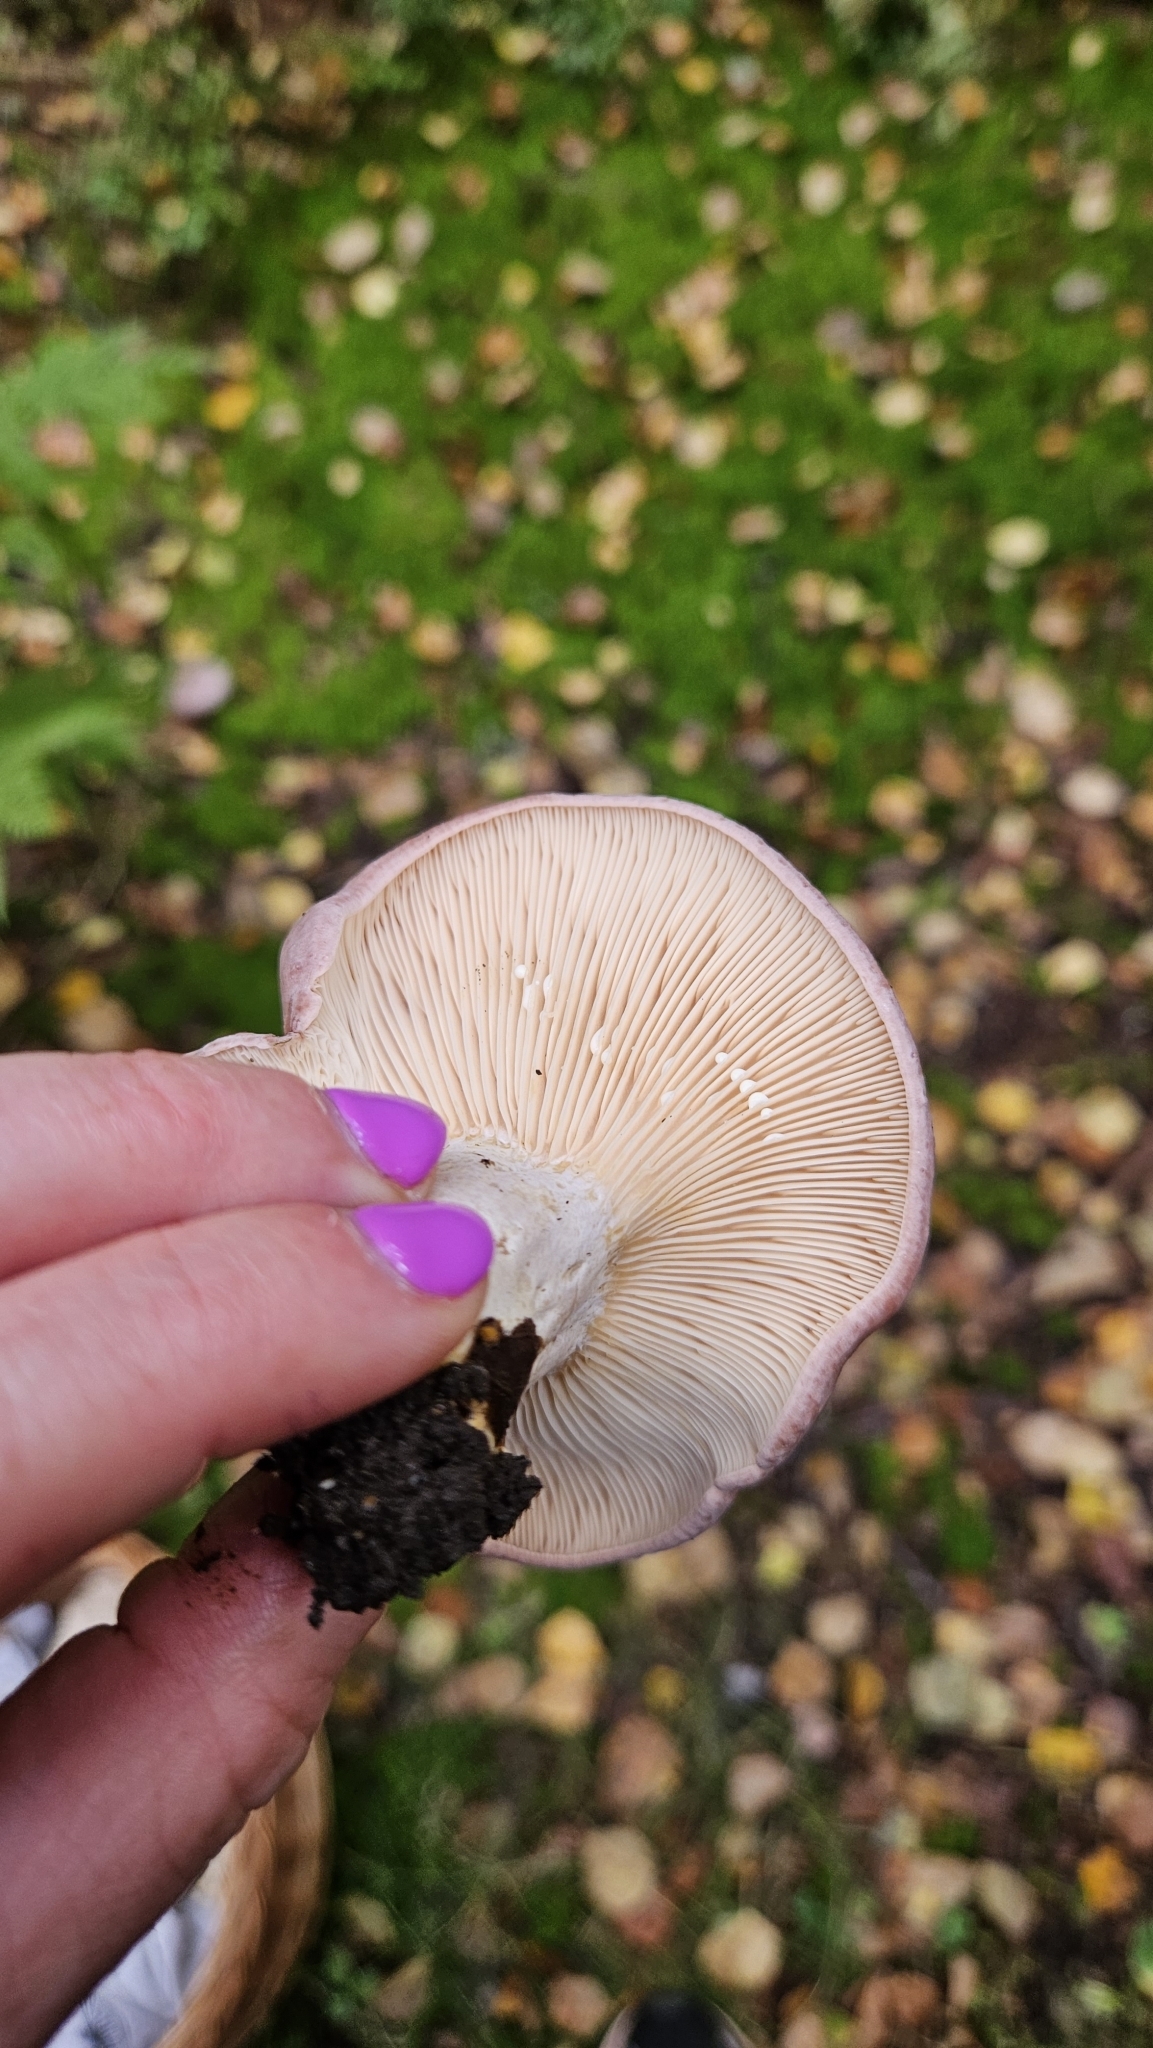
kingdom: Fungi
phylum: Basidiomycota
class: Agaricomycetes
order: Russulales
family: Russulaceae
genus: Lactarius
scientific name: Lactarius trivialis
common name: Tacked milkcap
